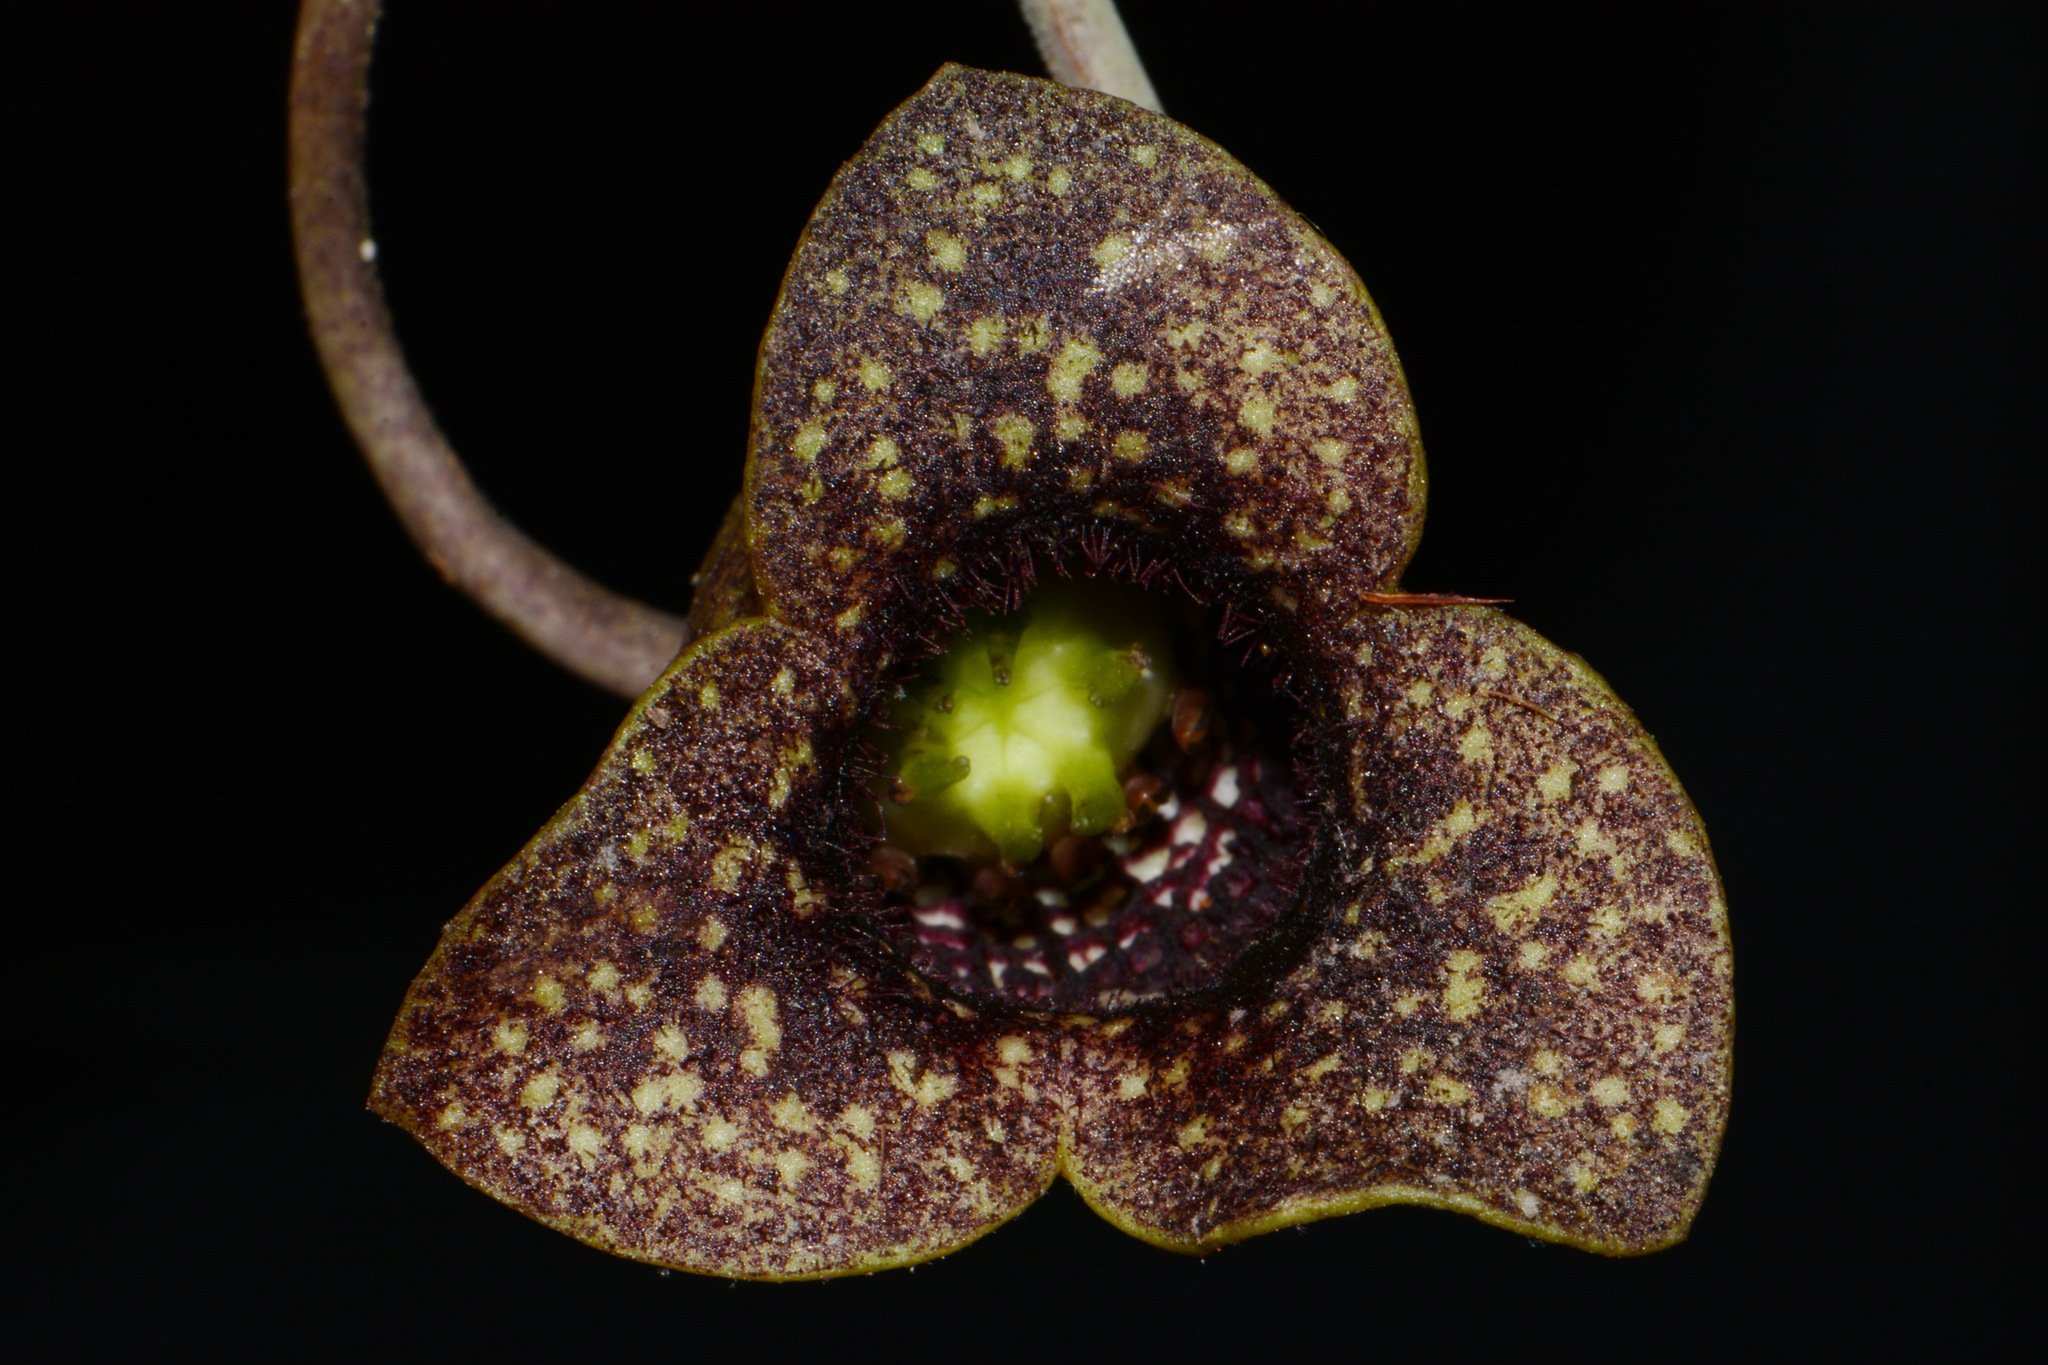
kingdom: Plantae
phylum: Tracheophyta
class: Magnoliopsida
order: Piperales
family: Aristolochiaceae
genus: Hexastylis
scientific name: Hexastylis shuttleworthii
